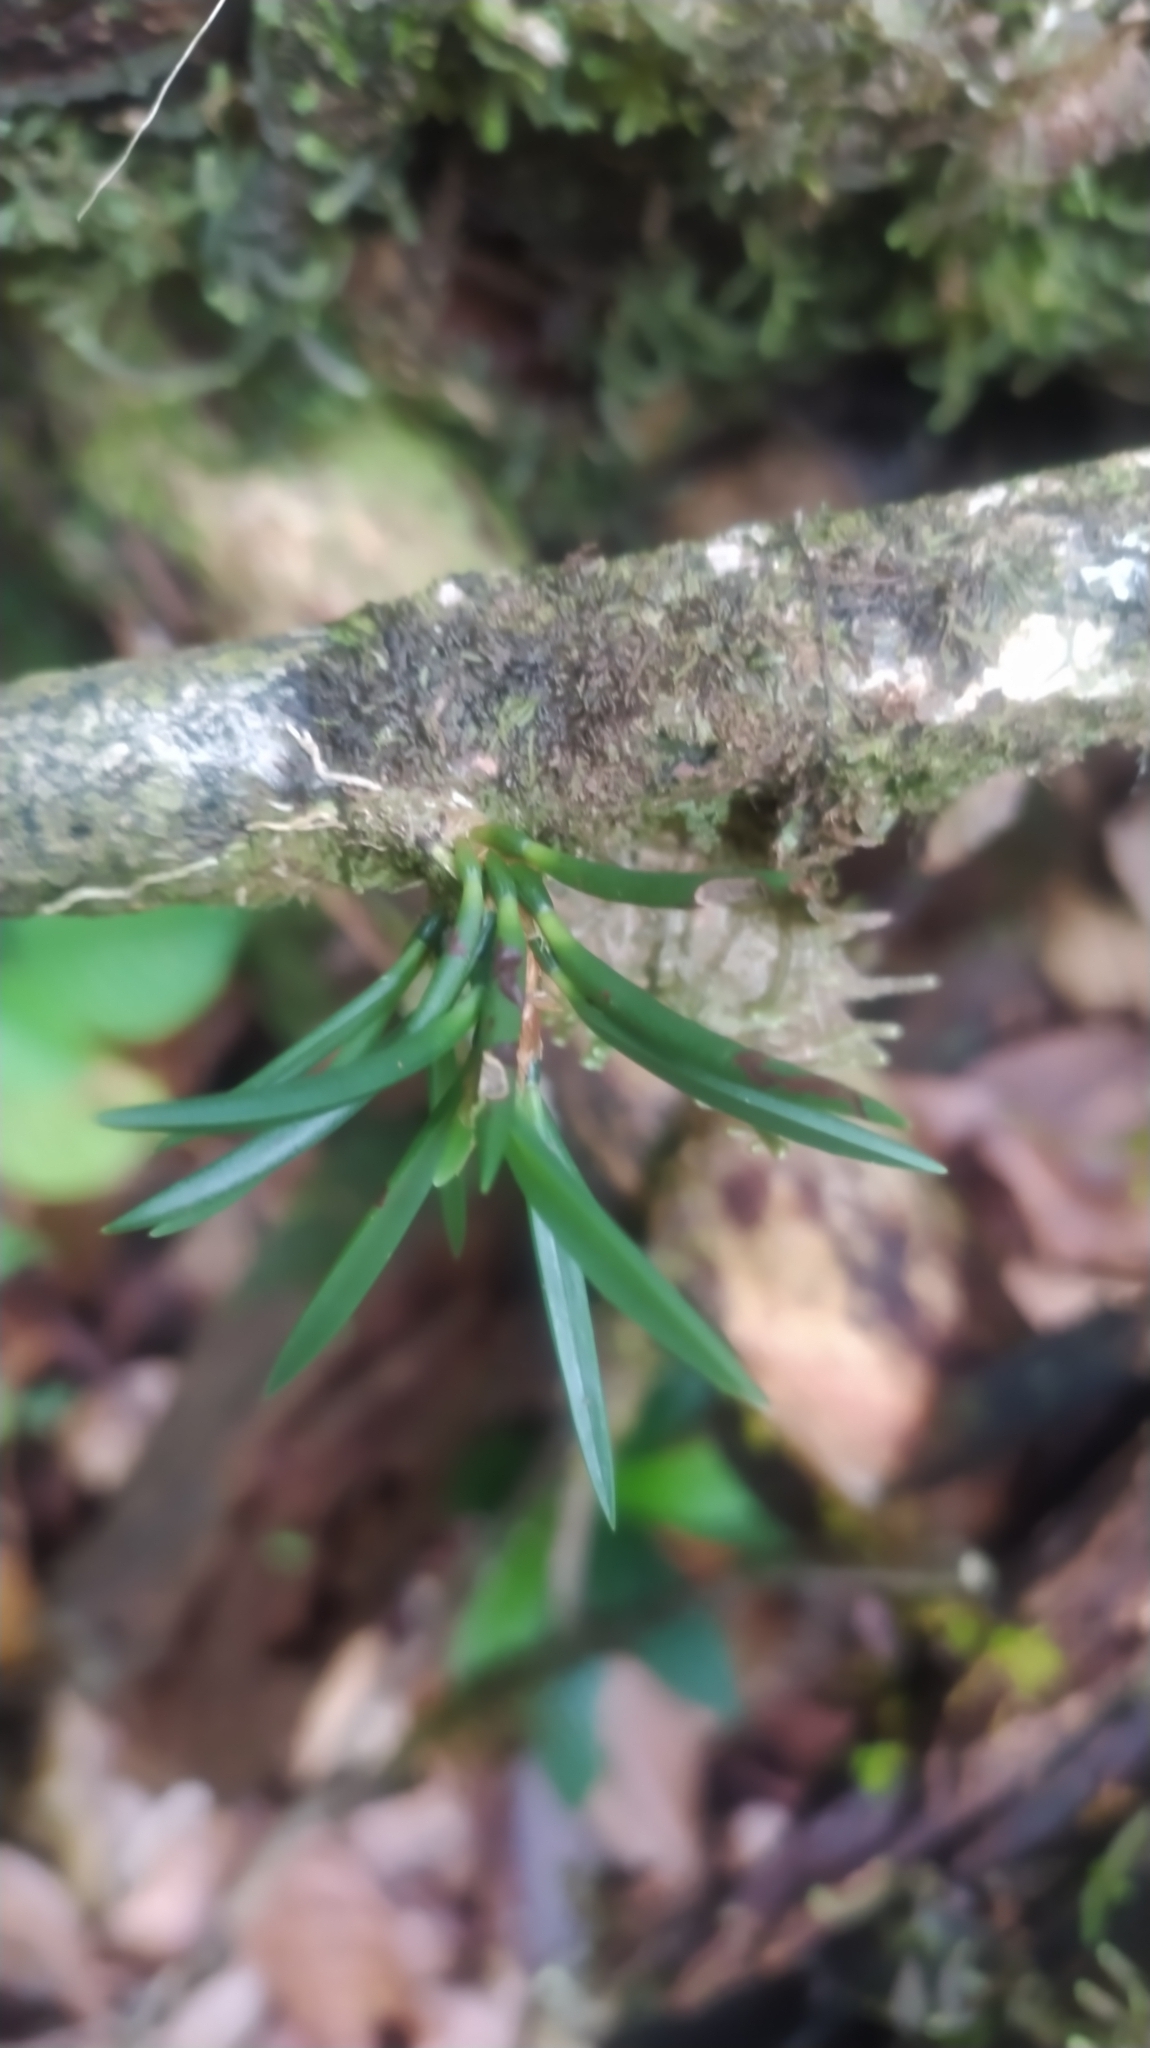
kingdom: Plantae
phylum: Tracheophyta
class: Liliopsida
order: Asparagales
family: Orchidaceae
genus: Maxillaria
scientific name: Maxillaria uncata
